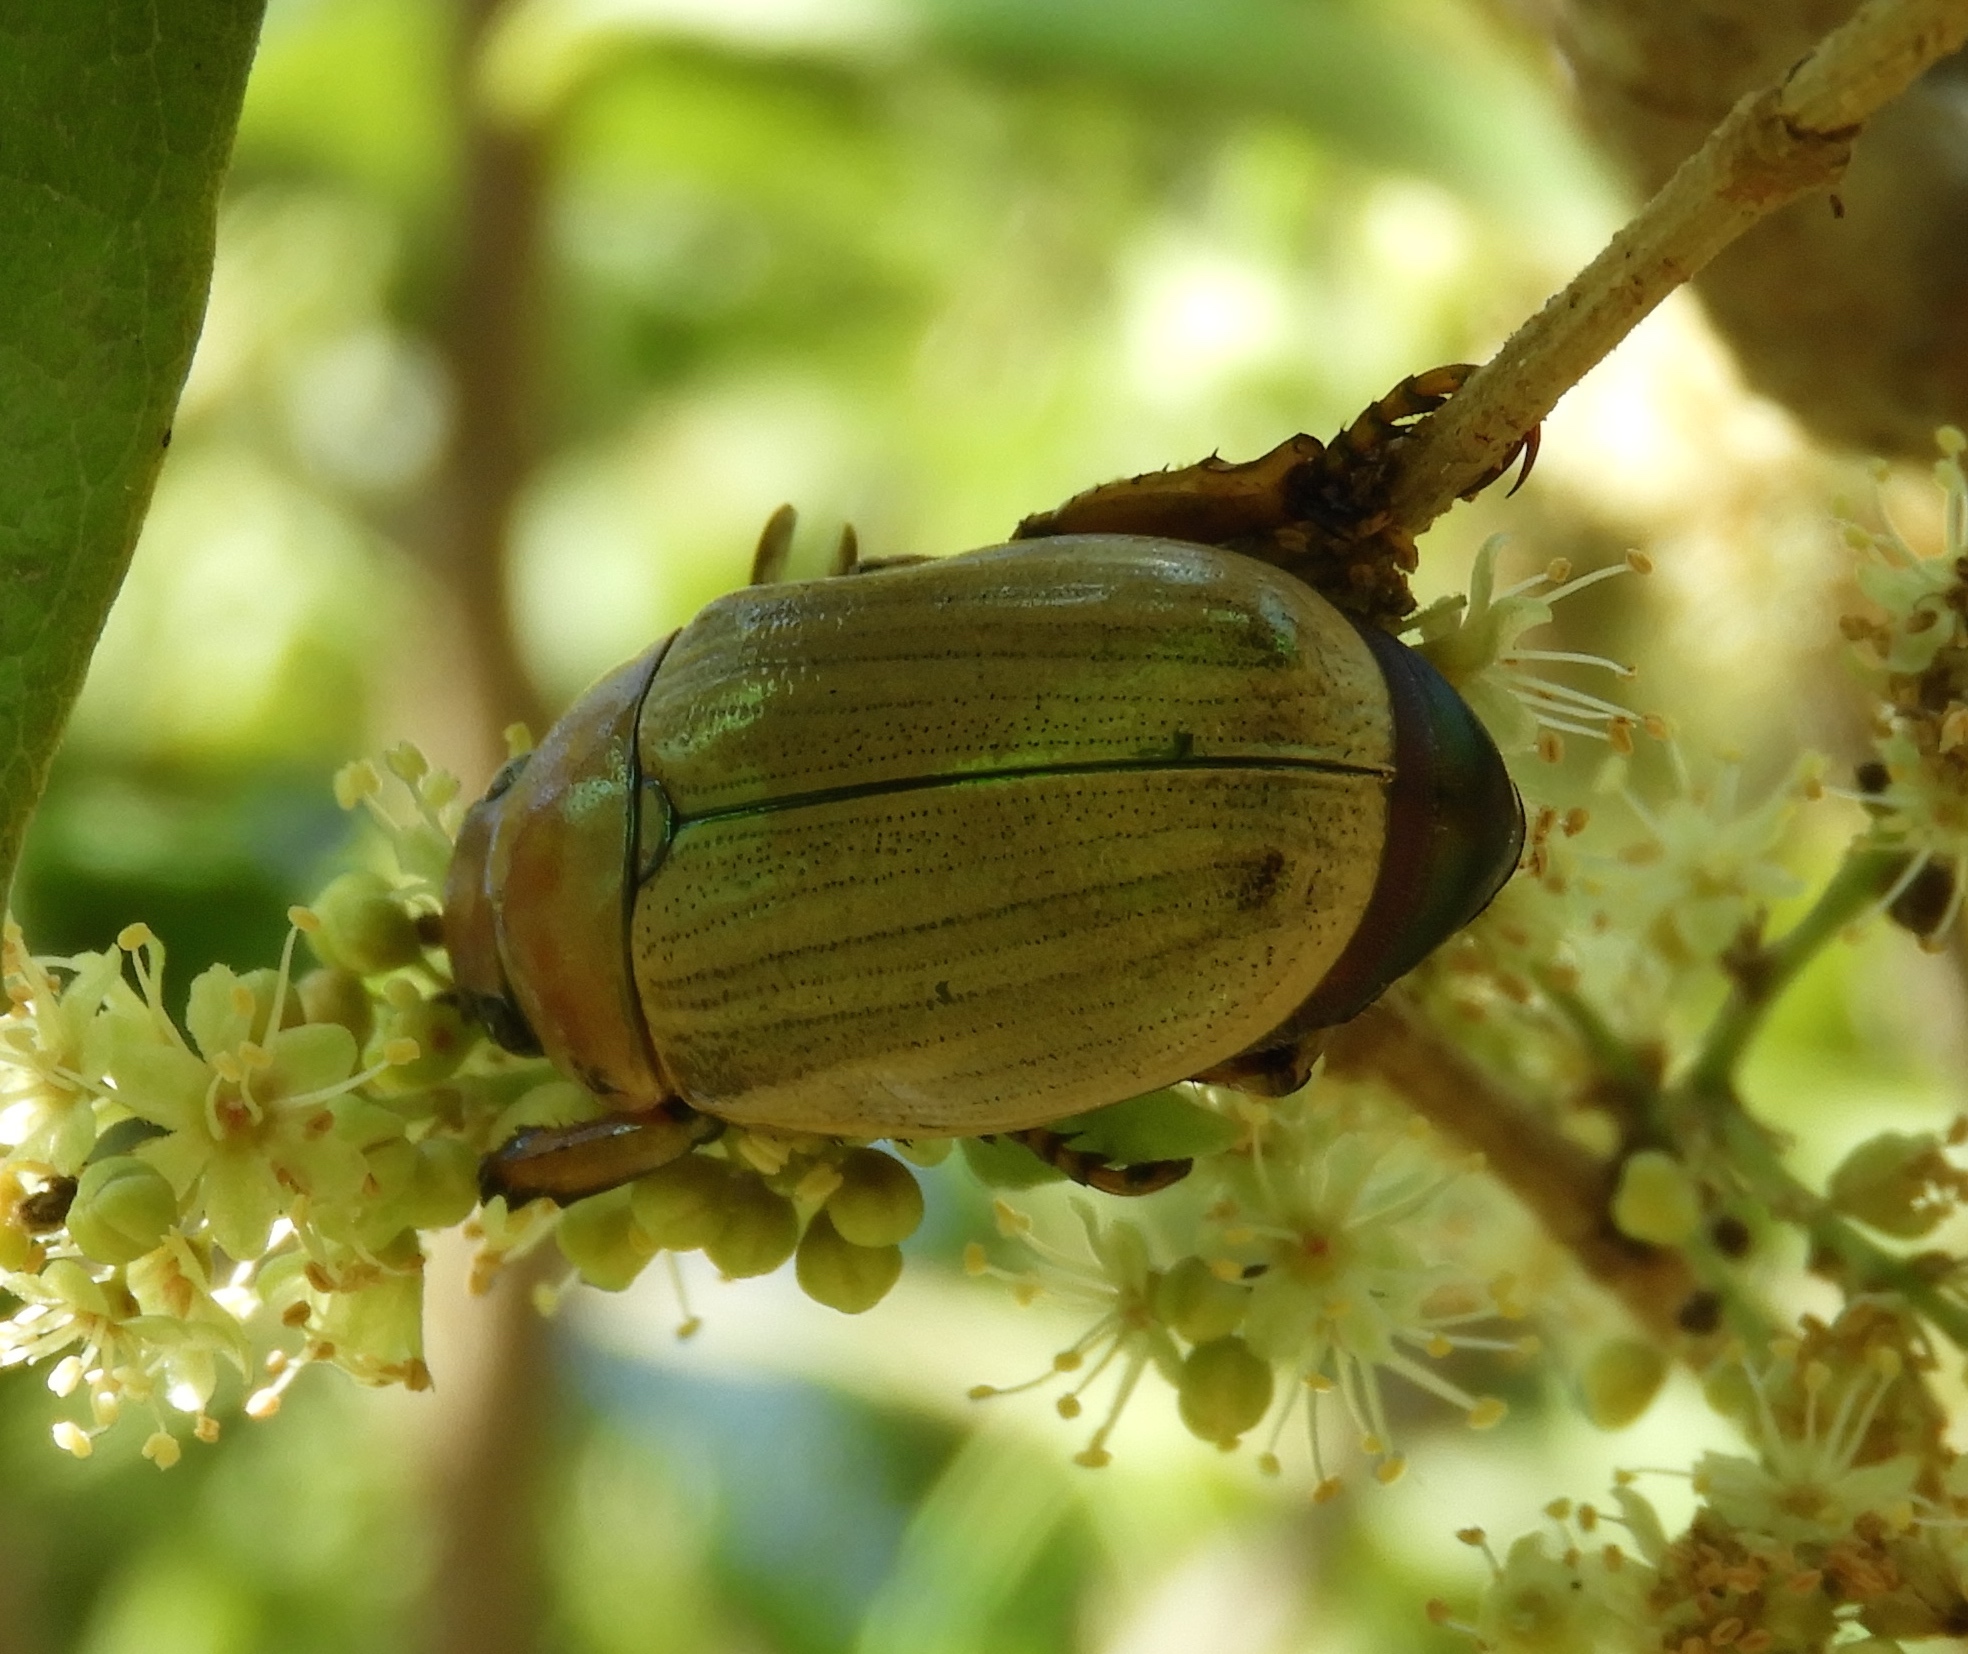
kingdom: Animalia
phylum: Arthropoda
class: Insecta
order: Coleoptera
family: Scarabaeidae
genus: Pelidnota
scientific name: Pelidnota virescens
